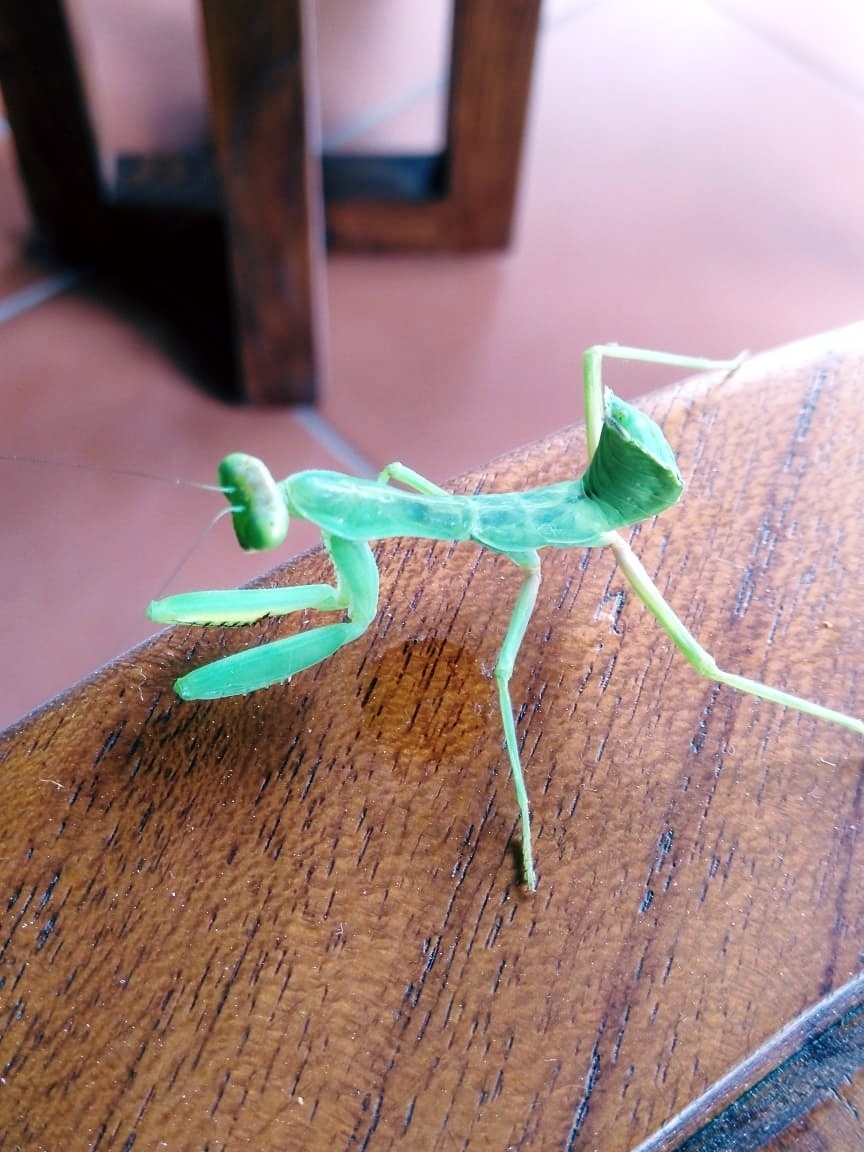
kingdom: Animalia
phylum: Arthropoda
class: Insecta
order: Mantodea
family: Mantidae
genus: Hierodula
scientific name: Hierodula tenuidentata
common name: Giant asian mantis
